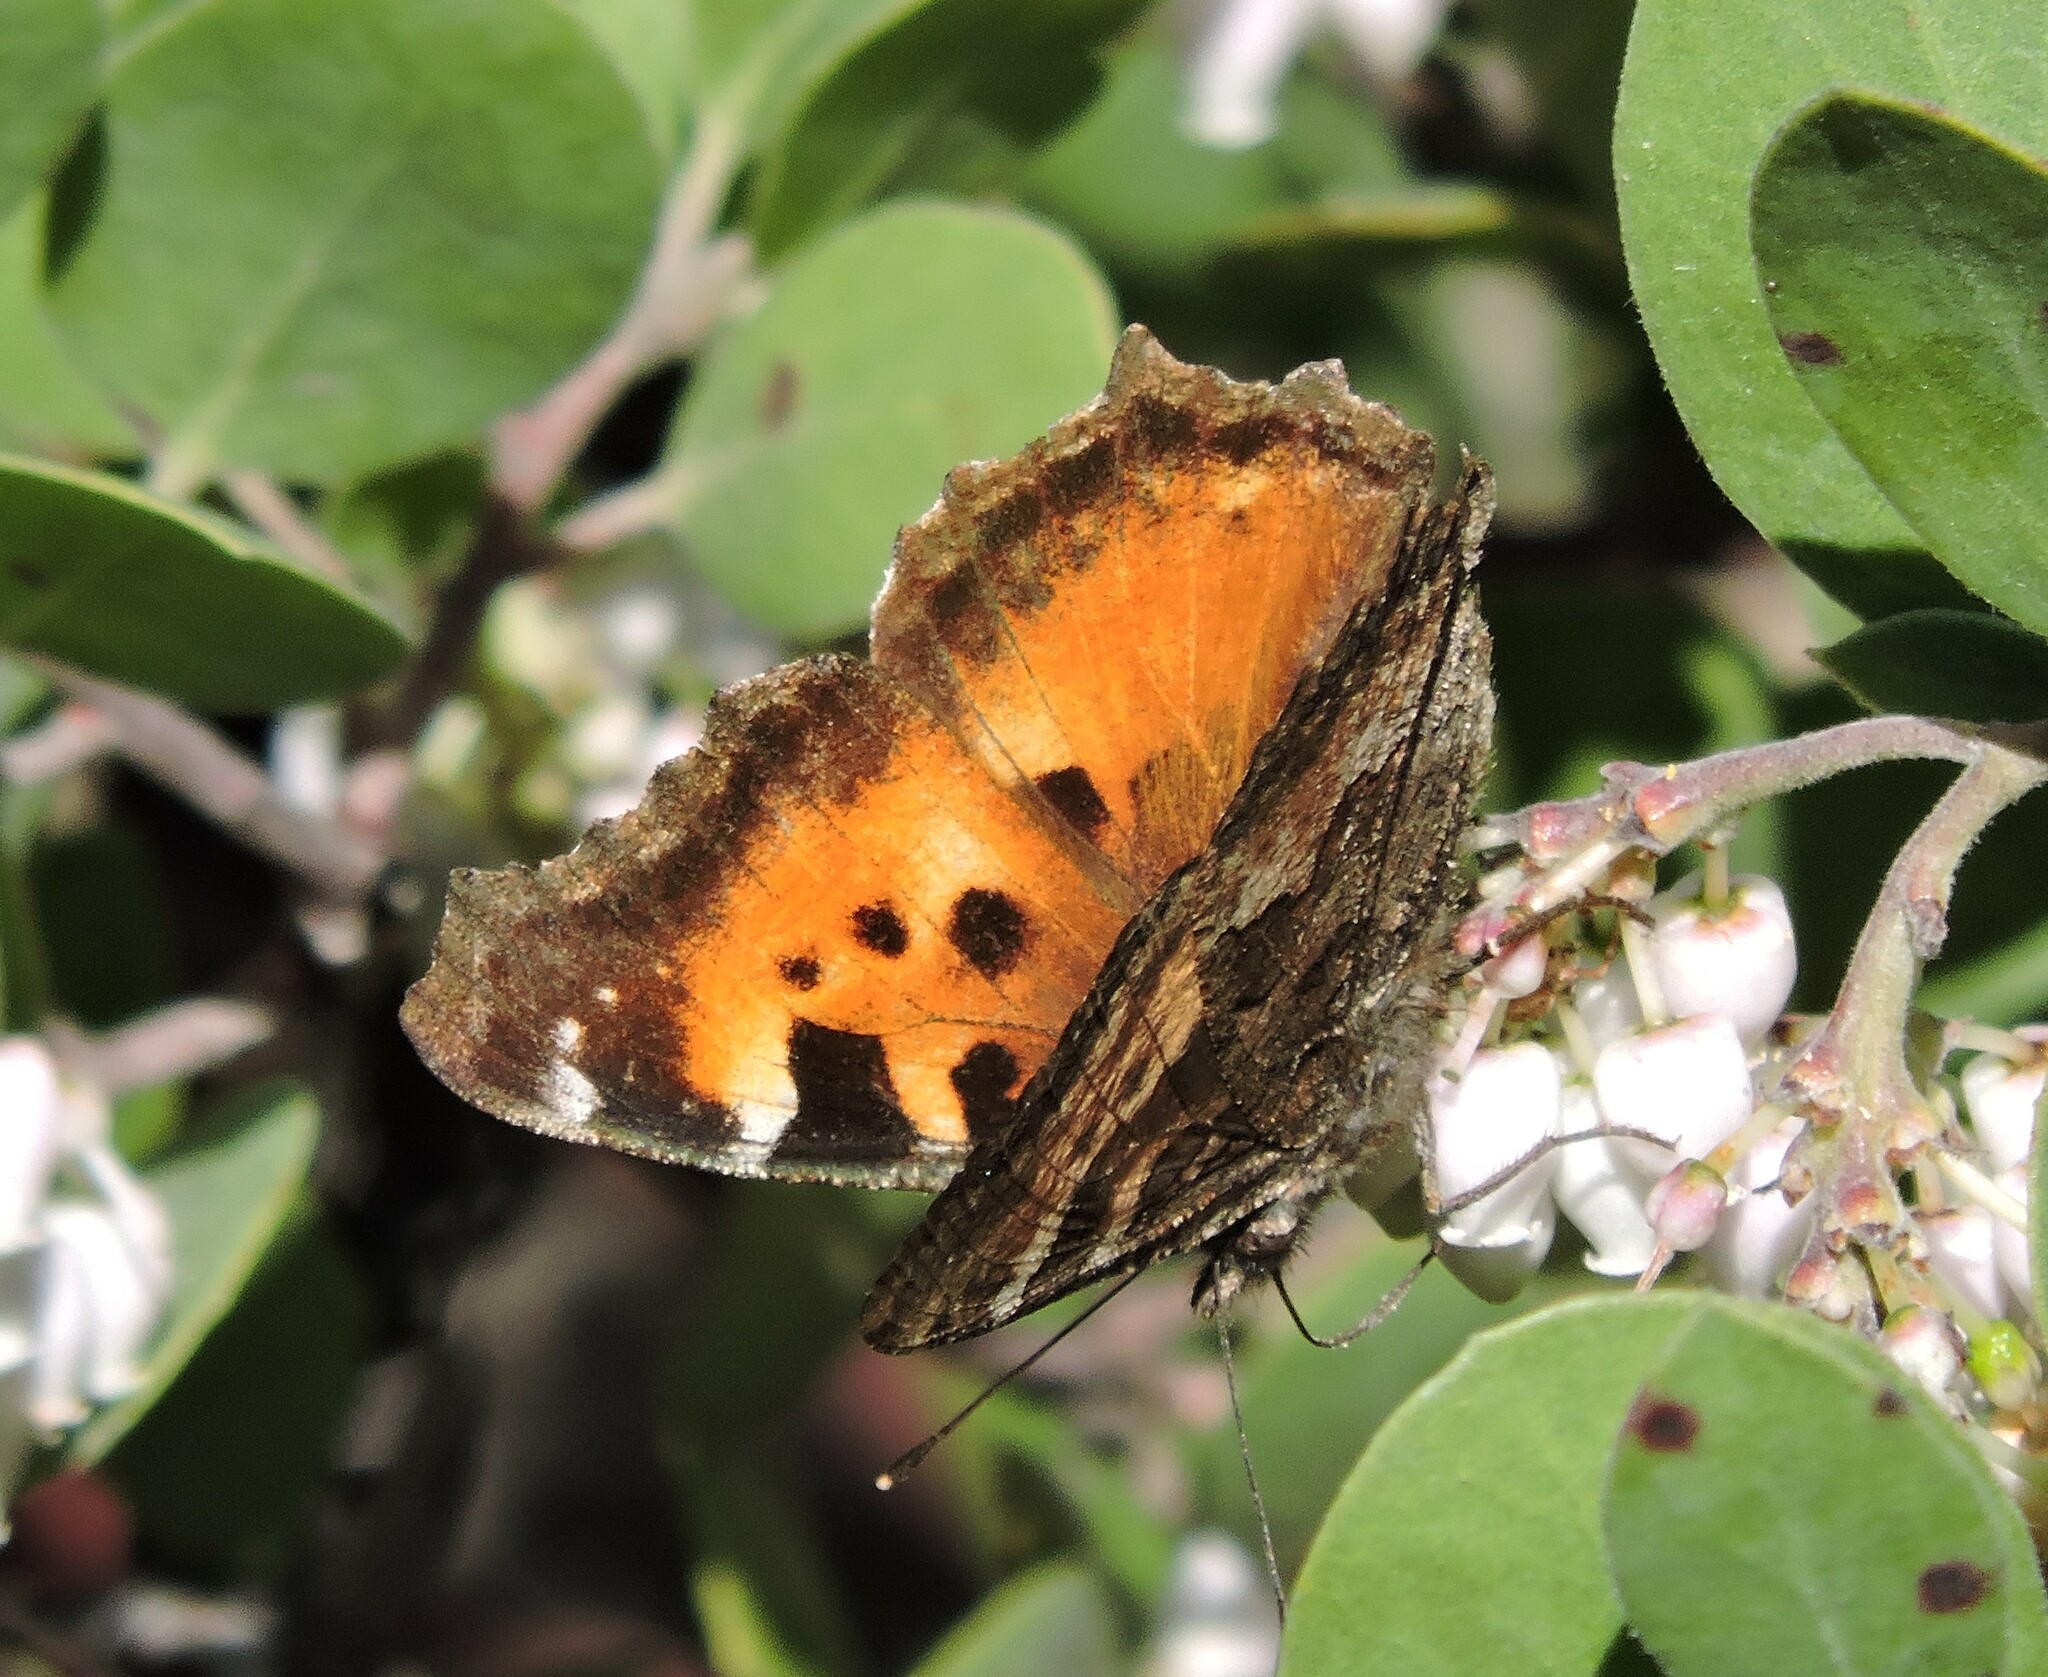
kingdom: Animalia
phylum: Arthropoda
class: Insecta
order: Lepidoptera
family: Nymphalidae
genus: Nymphalis
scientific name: Nymphalis californica
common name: California tortoiseshell
